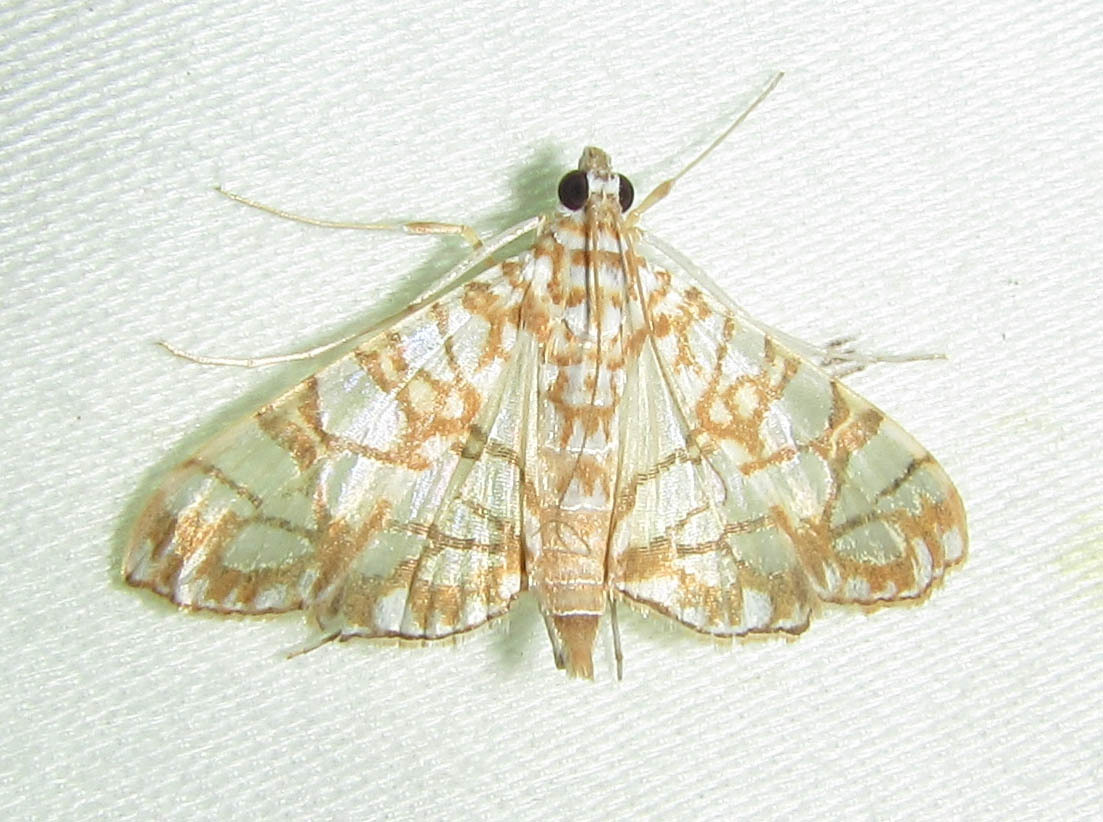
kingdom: Animalia
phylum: Arthropoda
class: Insecta
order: Lepidoptera
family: Crambidae
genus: Synclera
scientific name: Synclera traducalis
